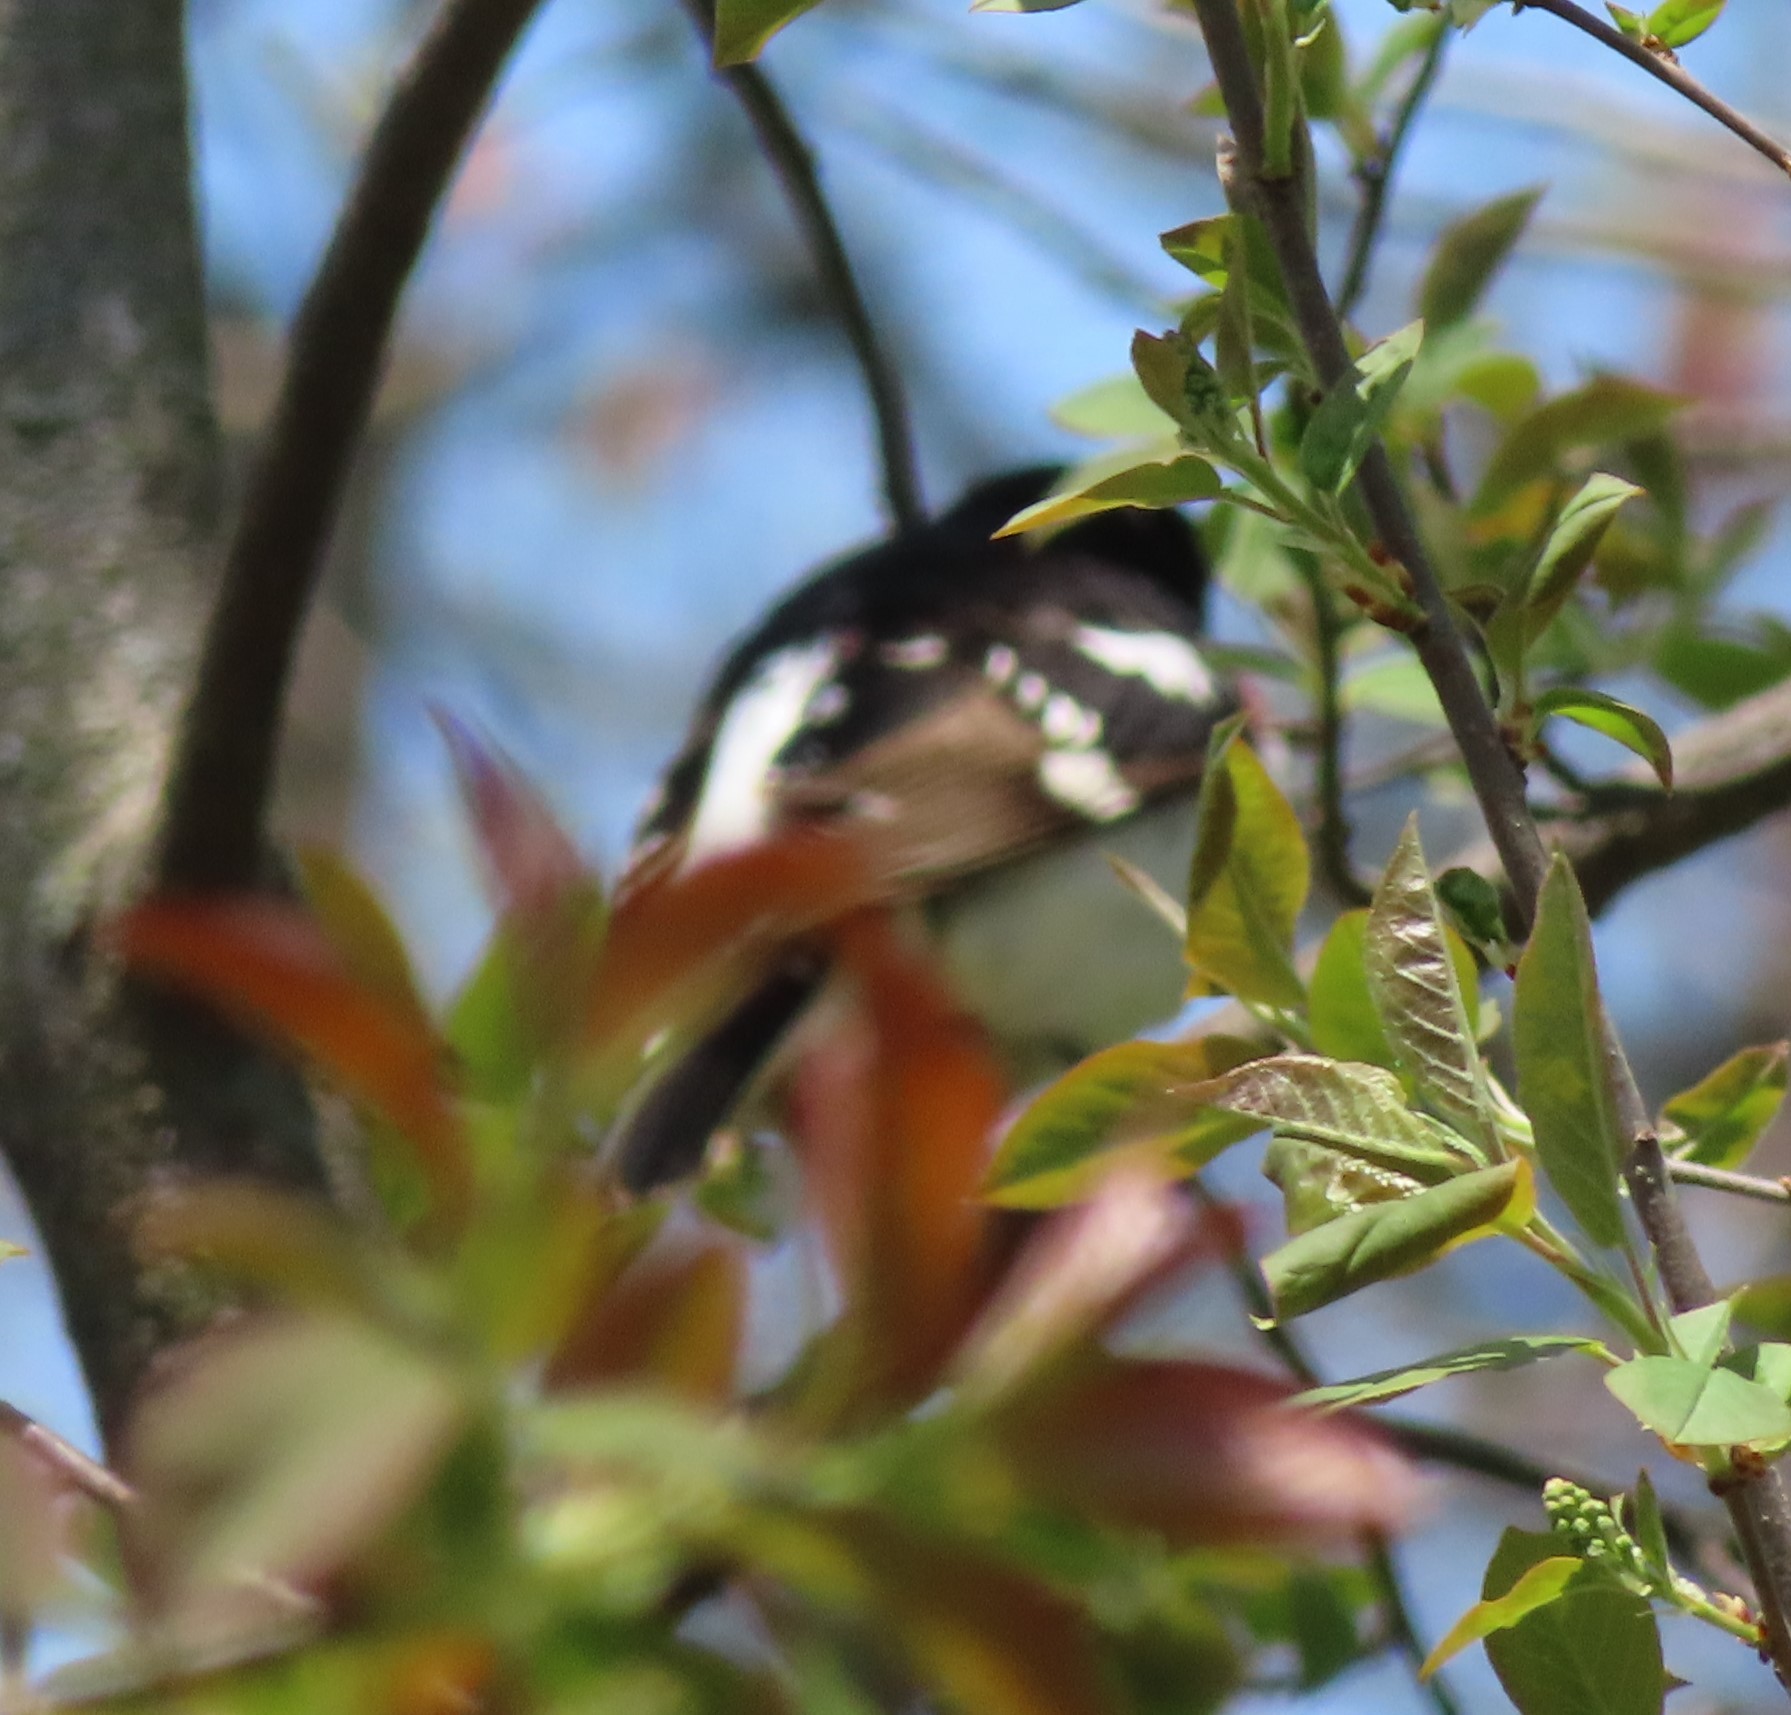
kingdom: Animalia
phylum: Chordata
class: Aves
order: Passeriformes
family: Cardinalidae
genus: Pheucticus
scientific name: Pheucticus ludovicianus
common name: Rose-breasted grosbeak
